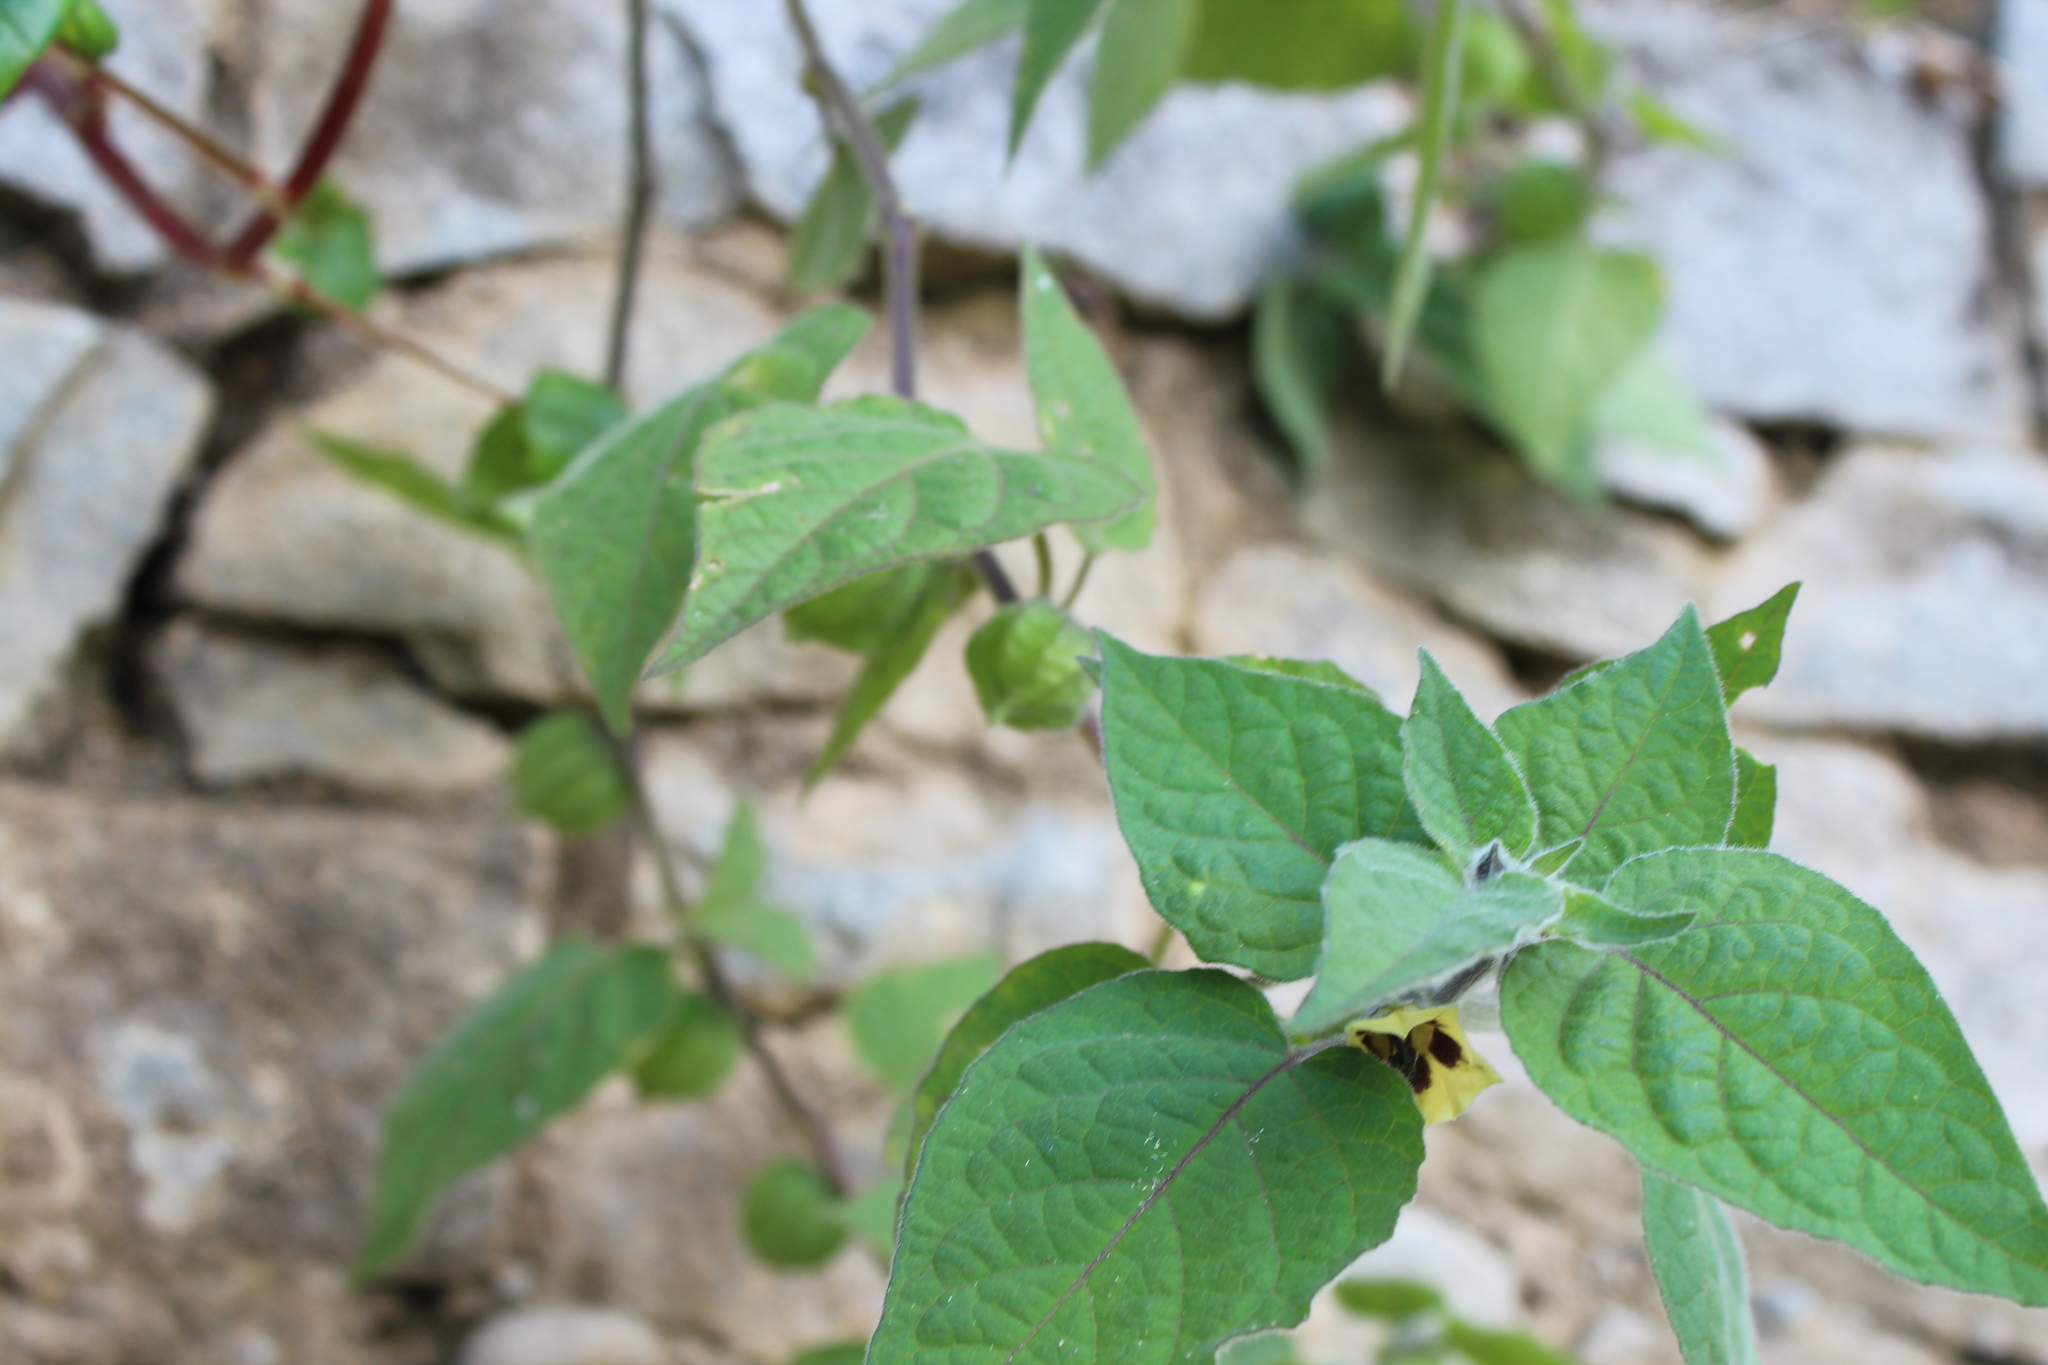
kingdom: Plantae
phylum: Tracheophyta
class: Magnoliopsida
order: Solanales
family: Solanaceae
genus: Physalis
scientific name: Physalis peruviana
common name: Cape-gooseberry
